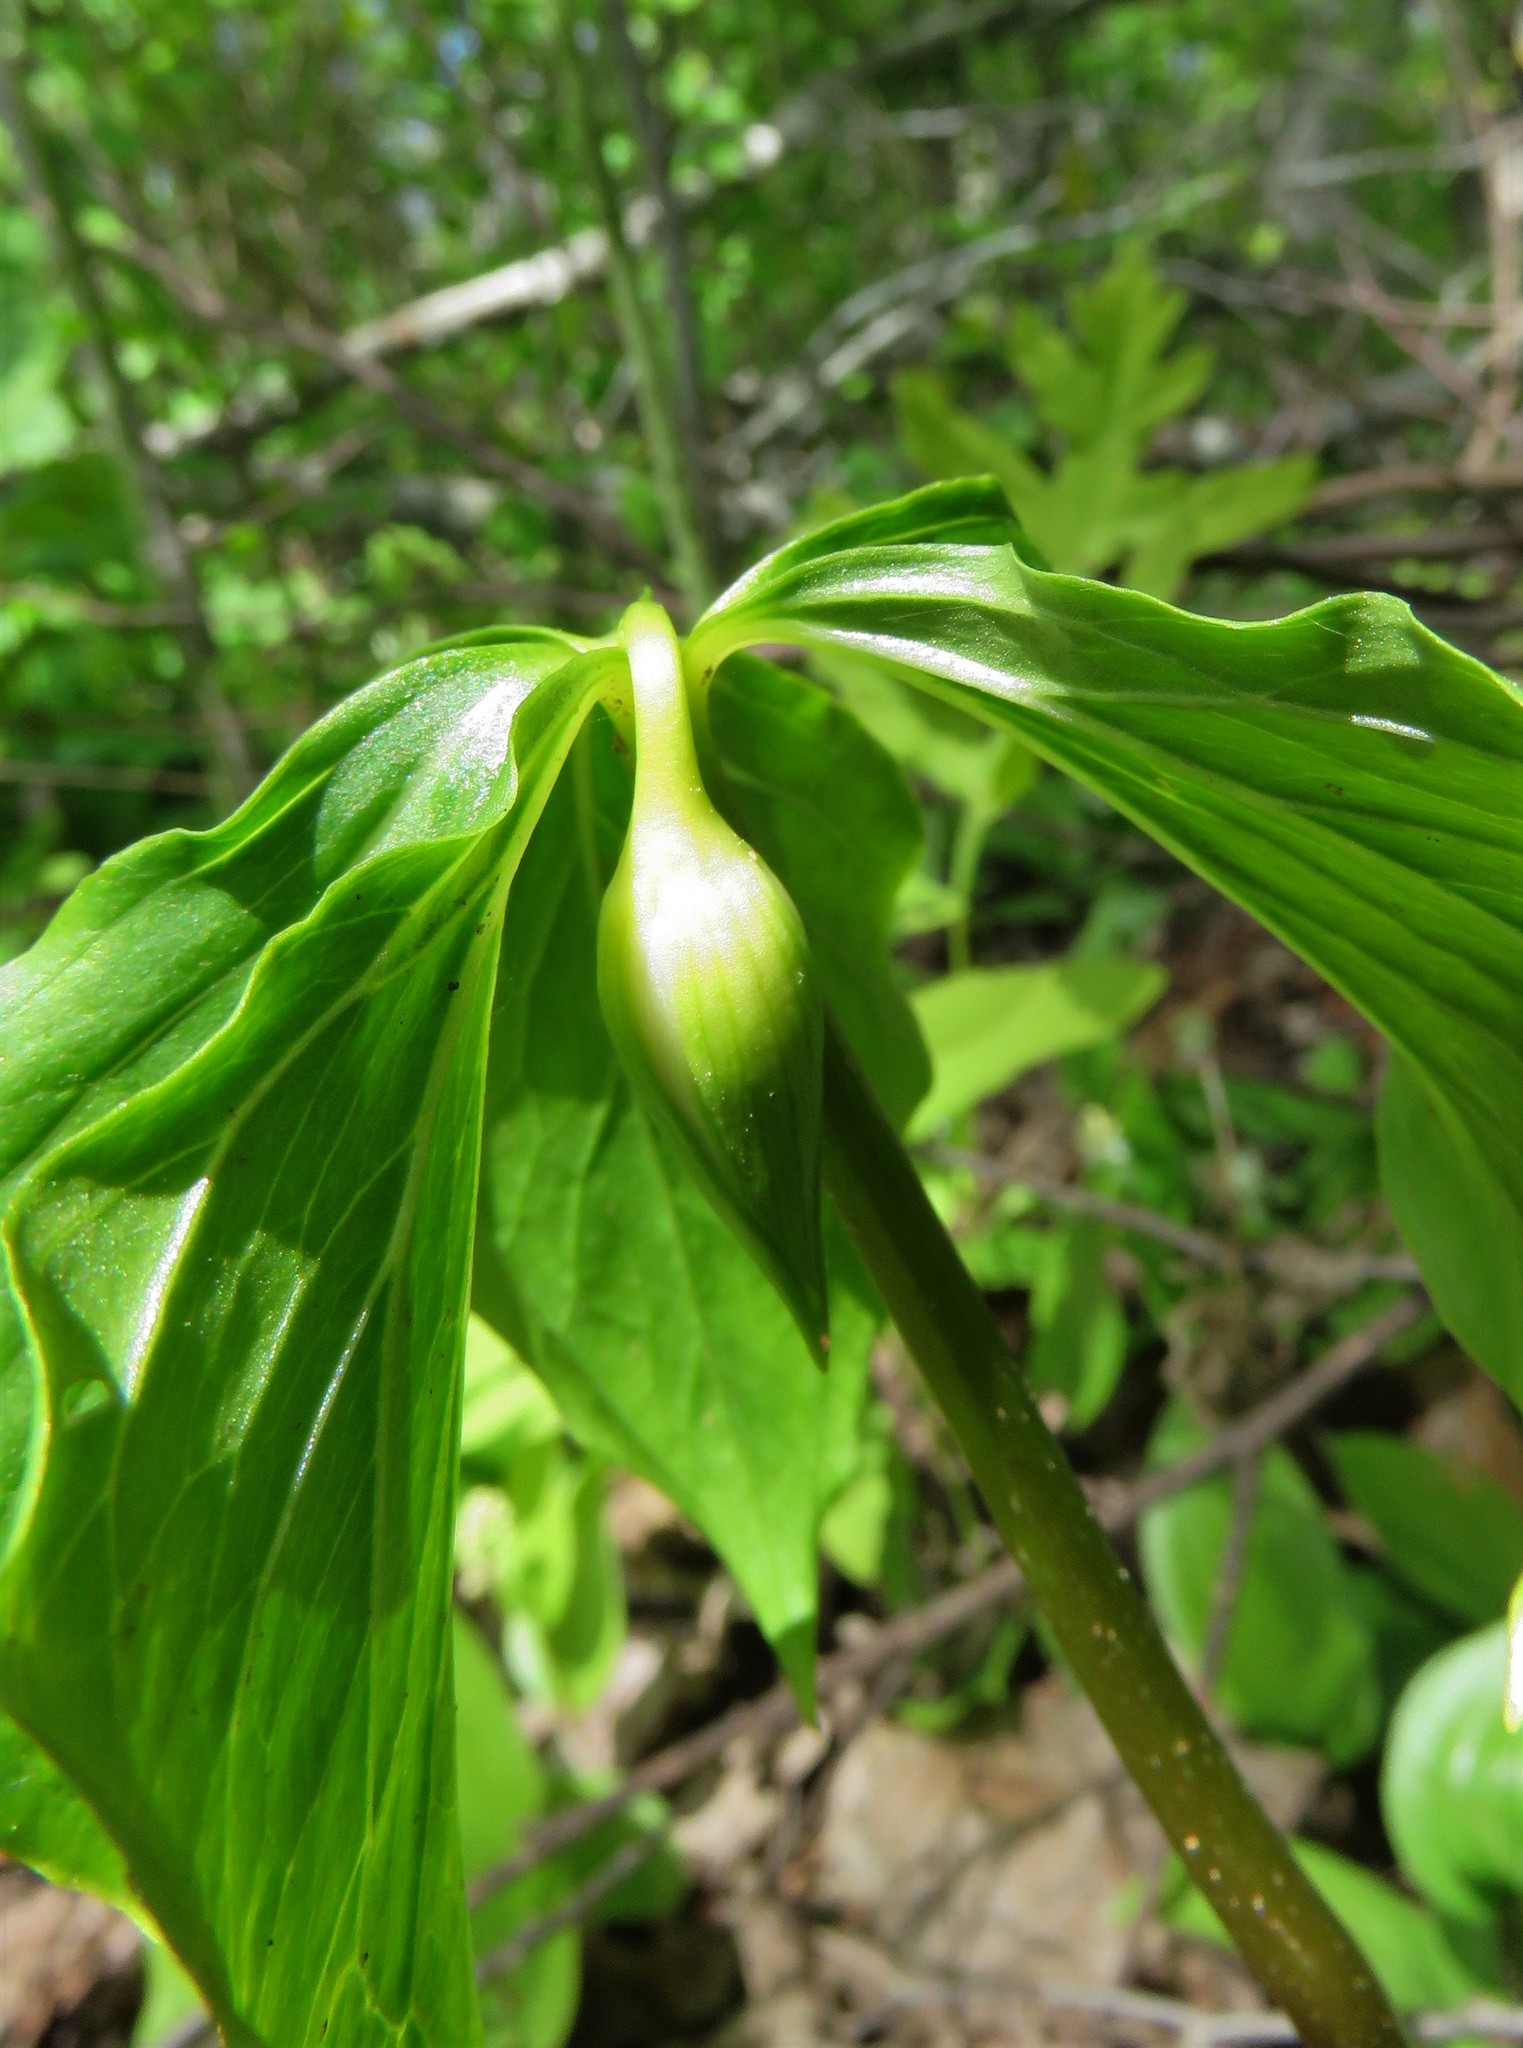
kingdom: Plantae
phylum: Tracheophyta
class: Liliopsida
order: Liliales
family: Melanthiaceae
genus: Trillium
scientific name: Trillium cernuum
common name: Nodding trillium
